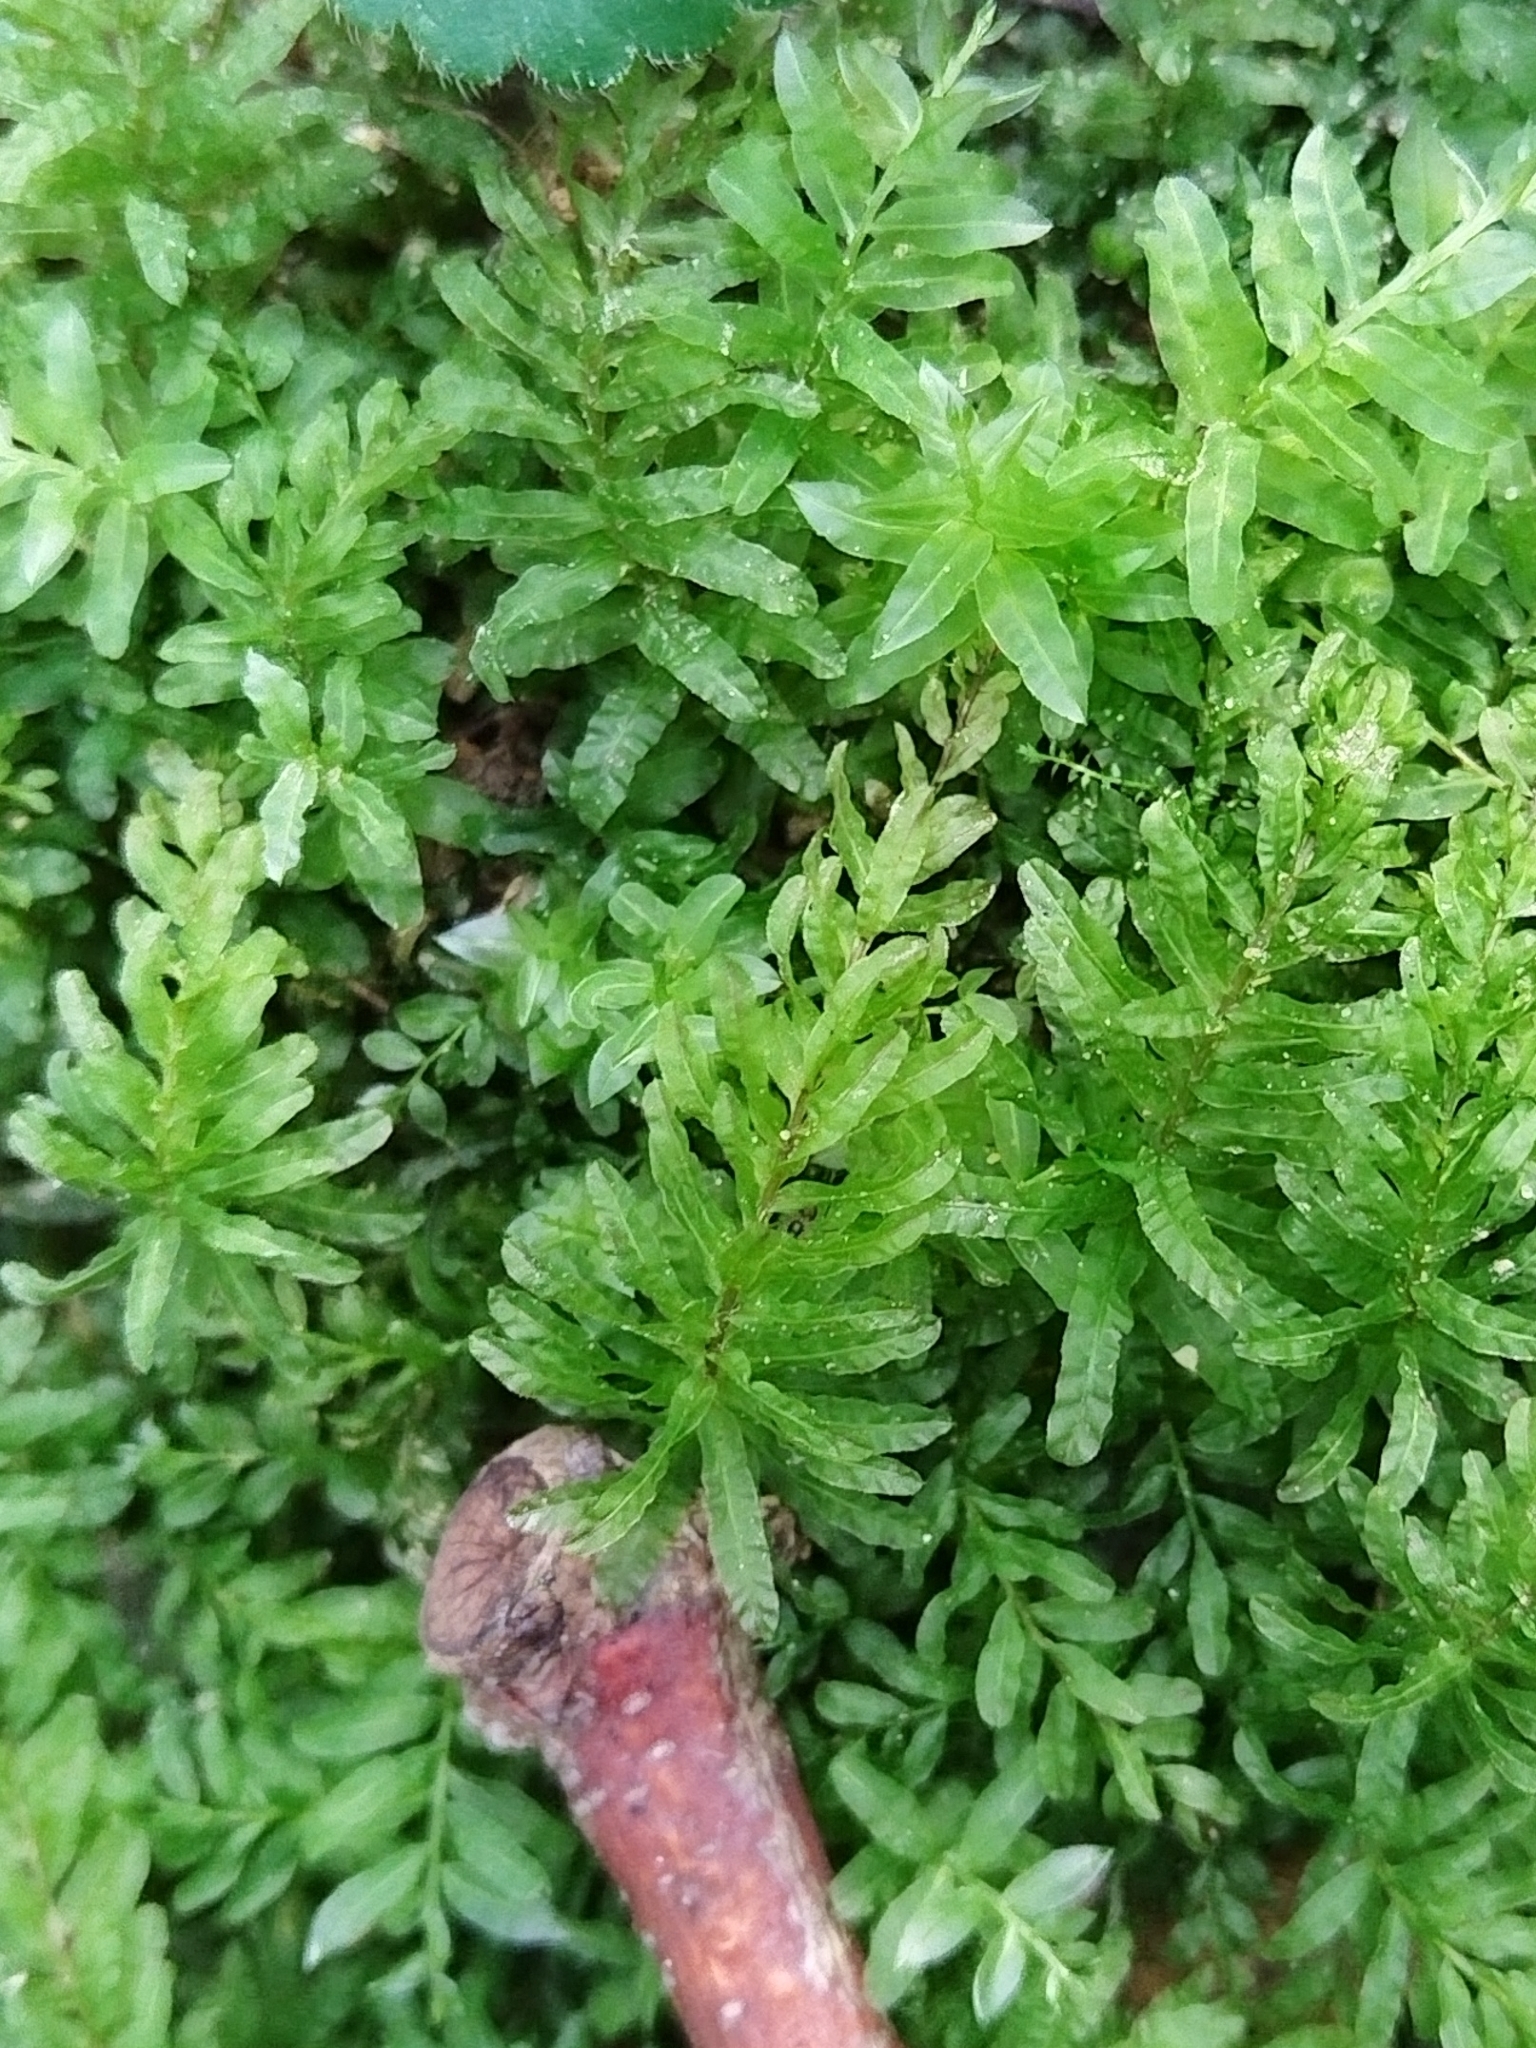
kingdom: Plantae
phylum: Bryophyta
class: Bryopsida
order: Bryales
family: Mniaceae
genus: Plagiomnium
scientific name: Plagiomnium undulatum
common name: Hart's-tongue thyme-moss
